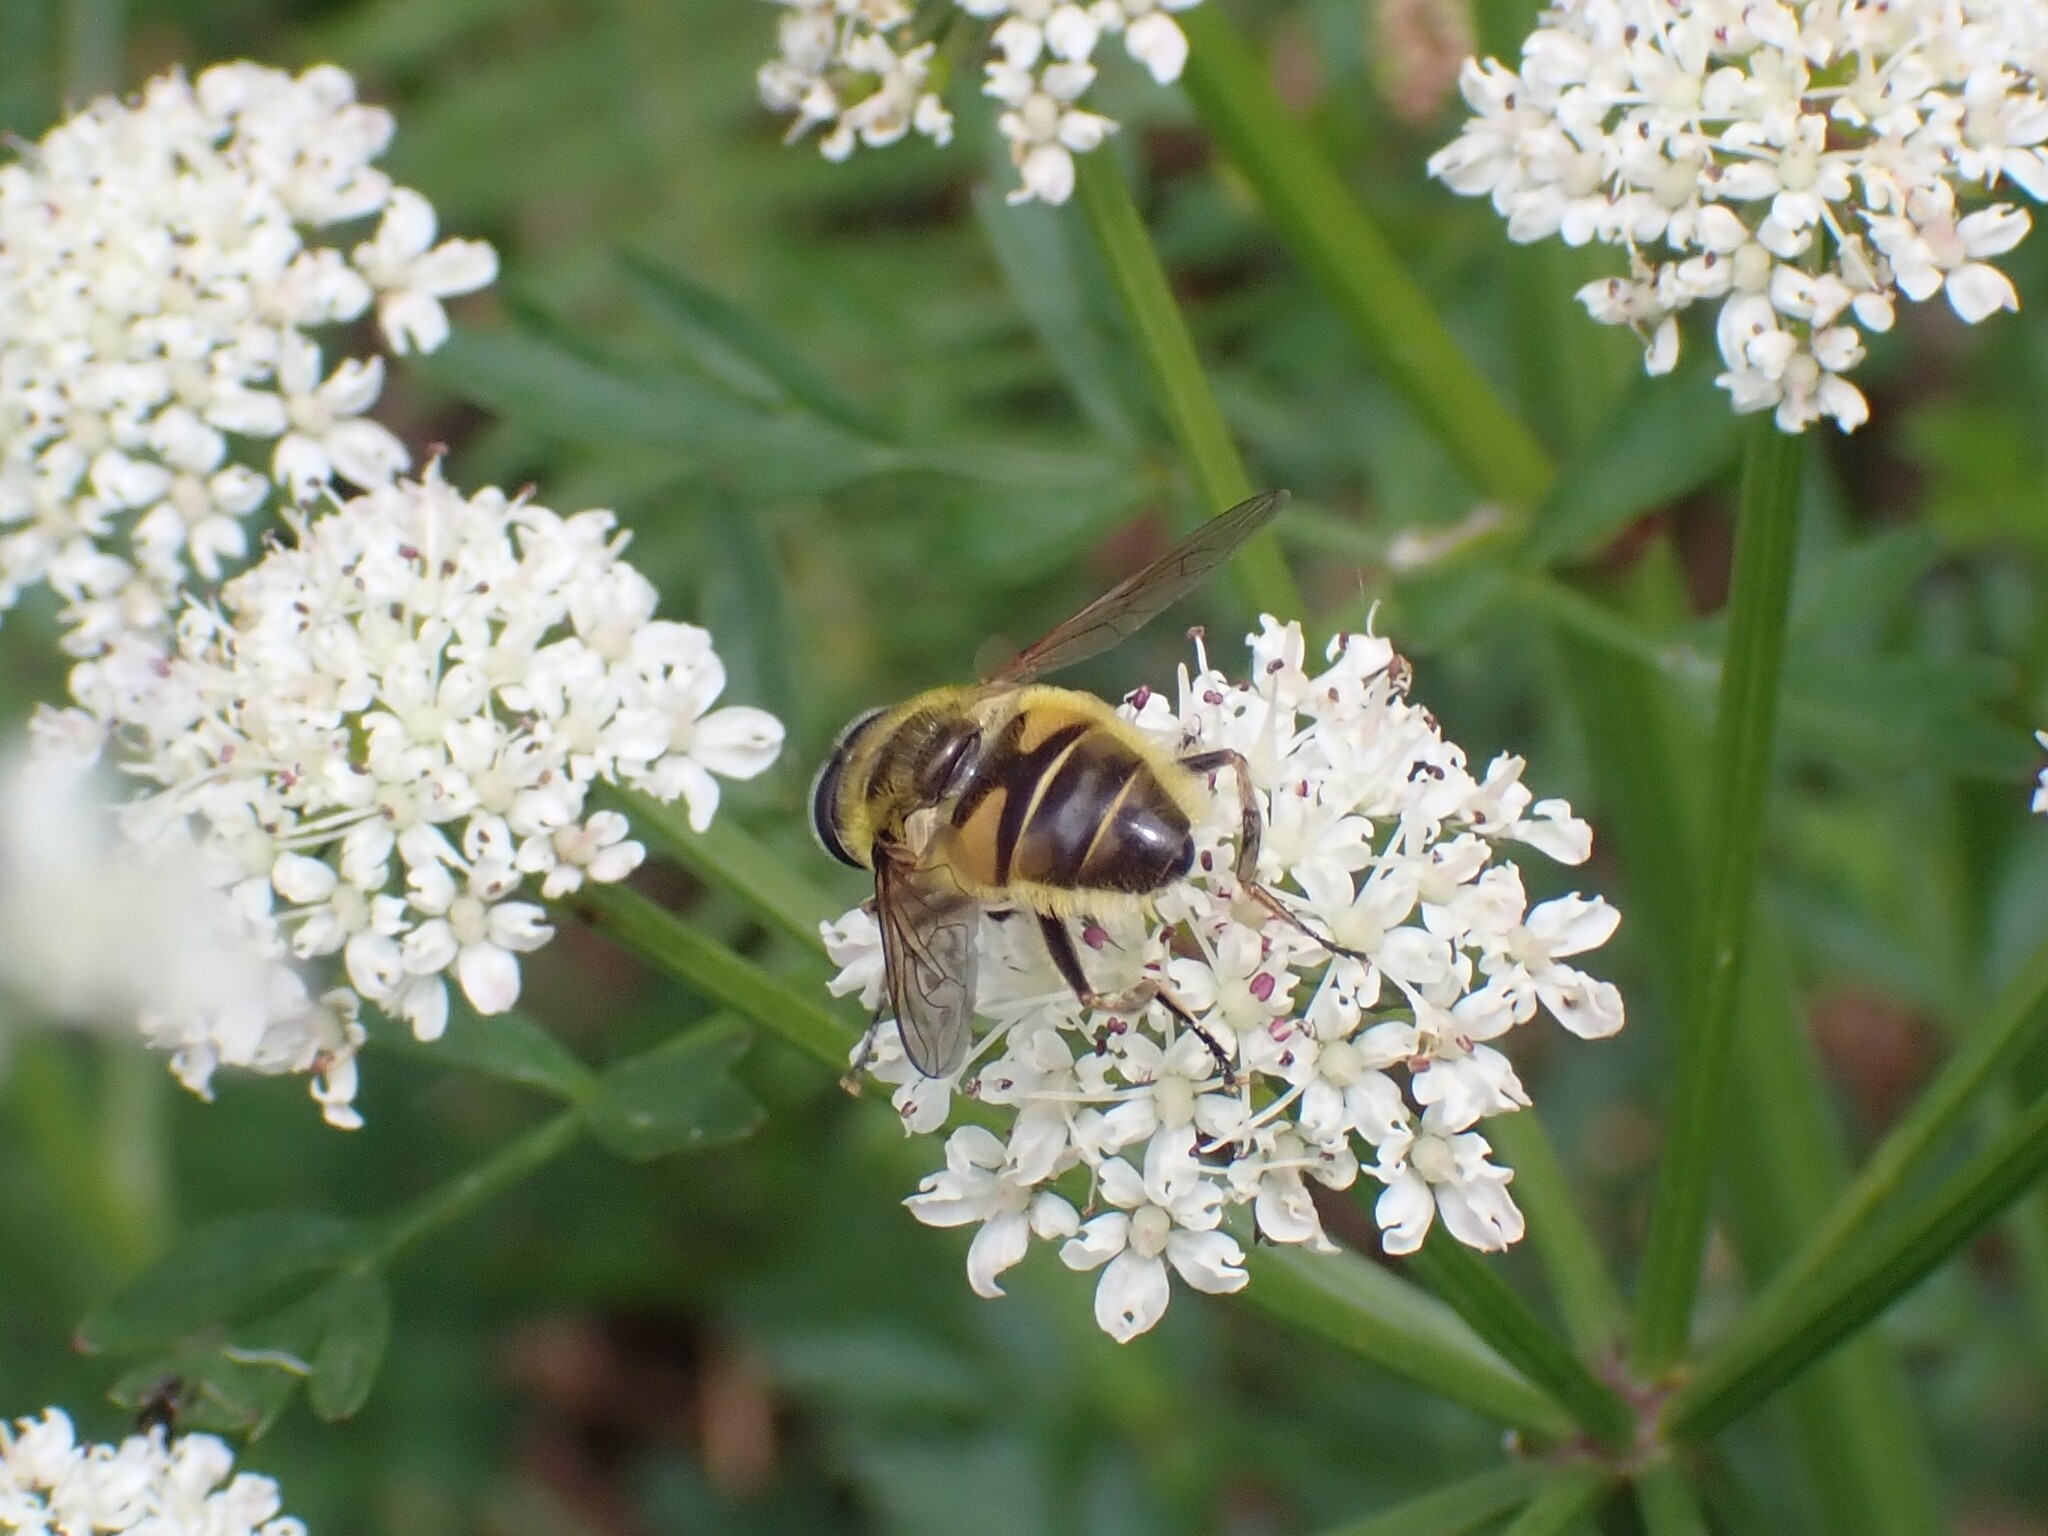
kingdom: Animalia
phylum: Arthropoda
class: Insecta
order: Diptera
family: Syrphidae
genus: Myathropa
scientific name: Myathropa florea
